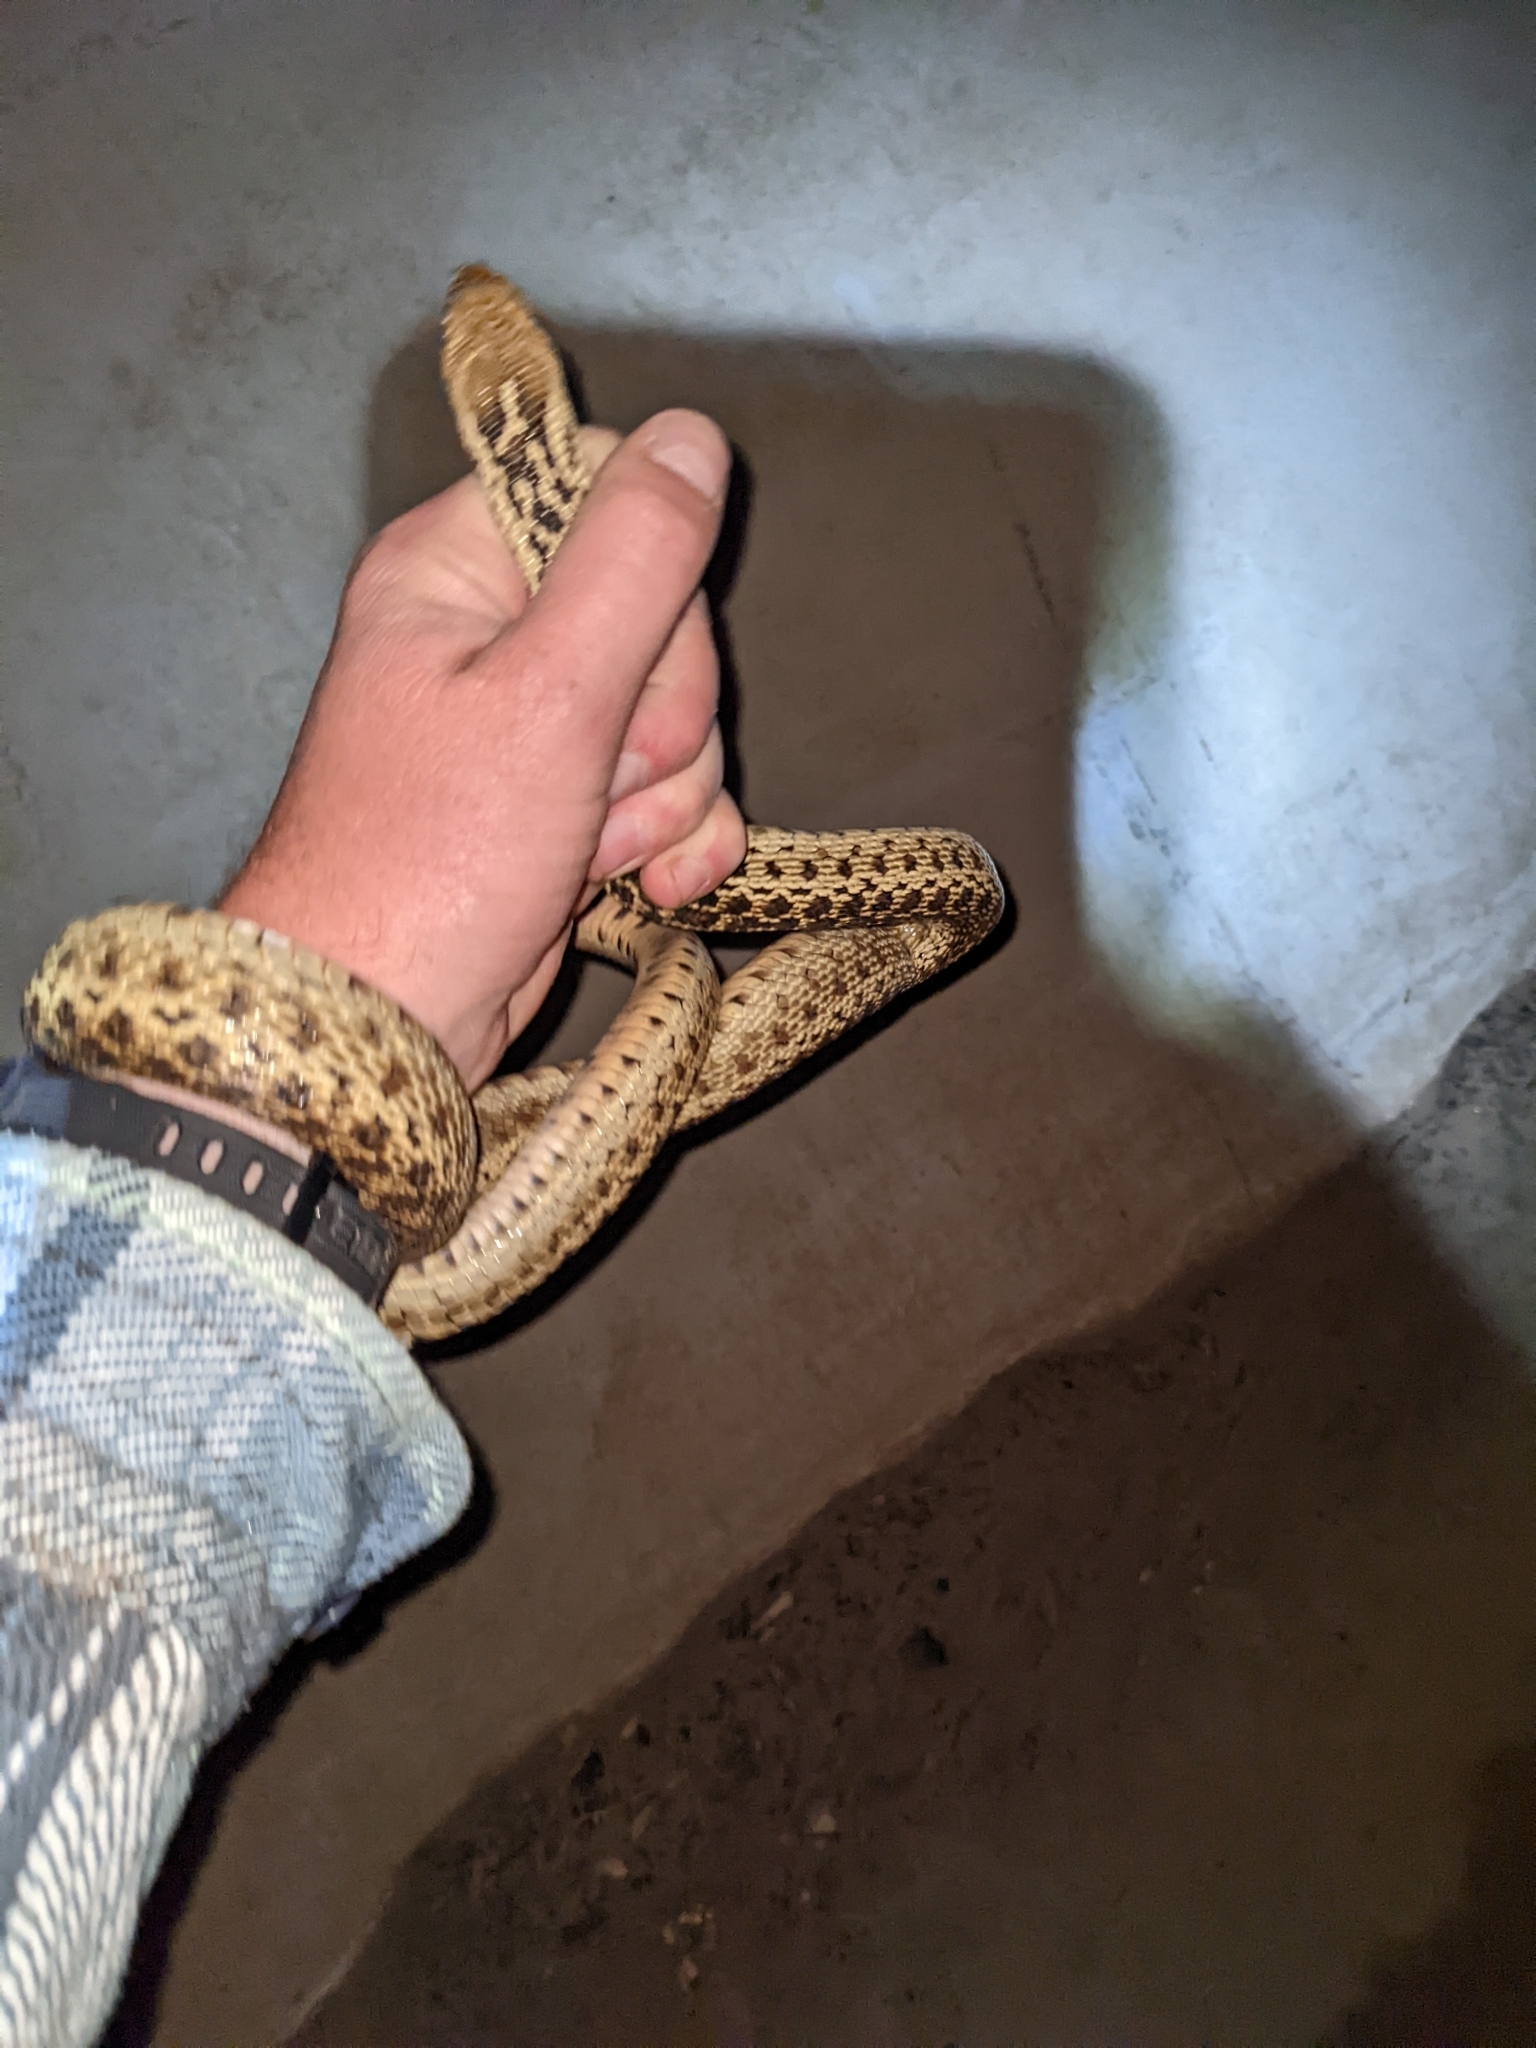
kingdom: Animalia
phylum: Chordata
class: Squamata
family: Colubridae
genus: Pituophis
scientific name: Pituophis catenifer
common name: Gopher snake
